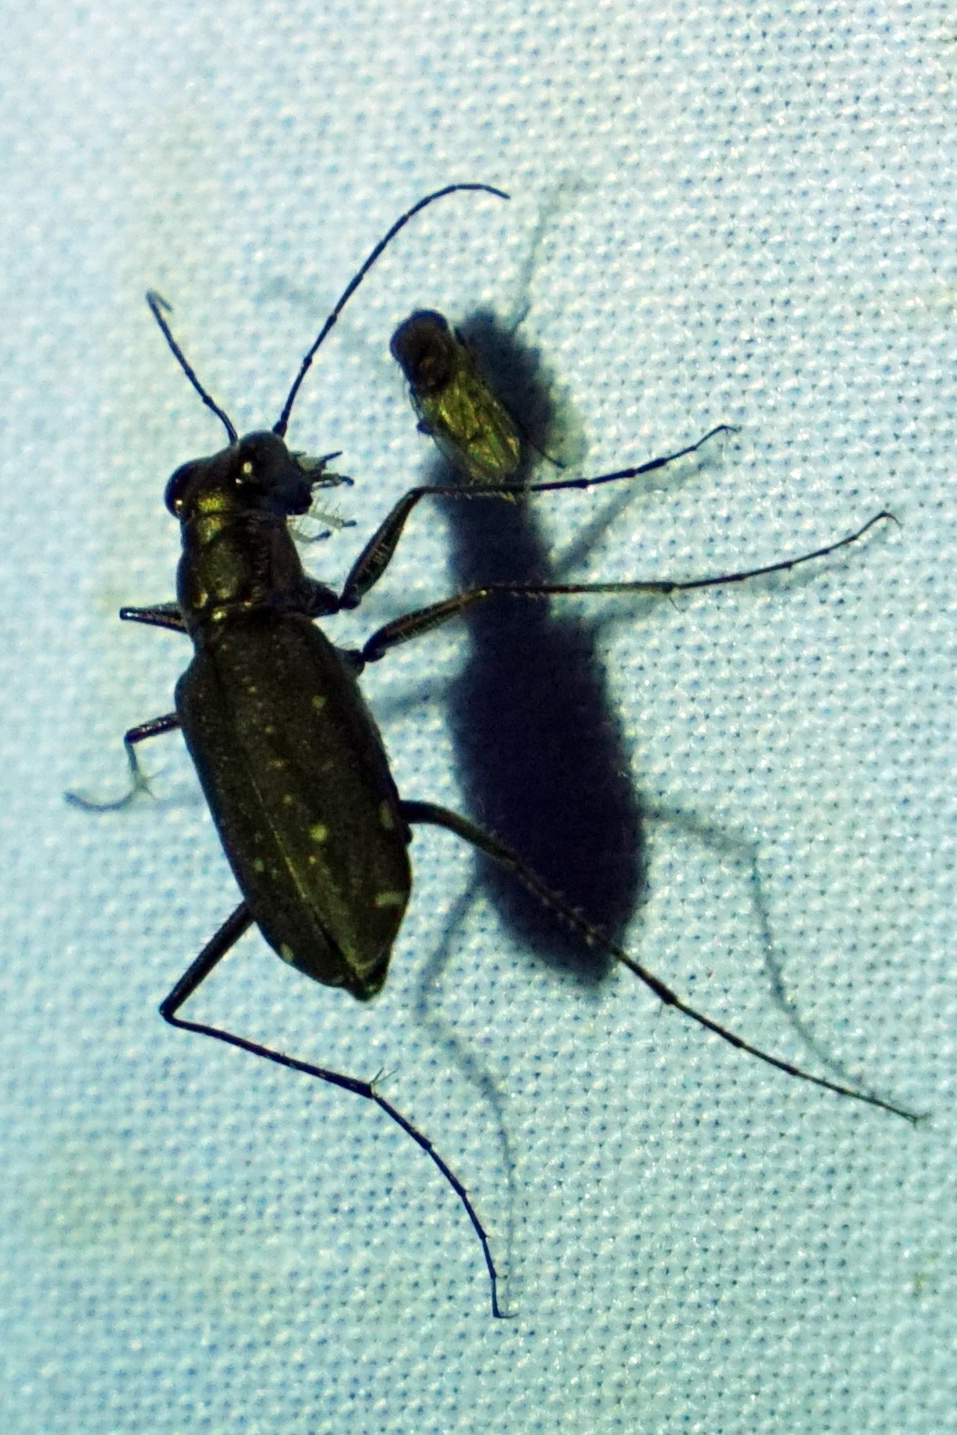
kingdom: Animalia
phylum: Arthropoda
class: Insecta
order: Coleoptera
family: Carabidae
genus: Cicindela
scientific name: Cicindela punctulata
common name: Punctured tiger beetle
